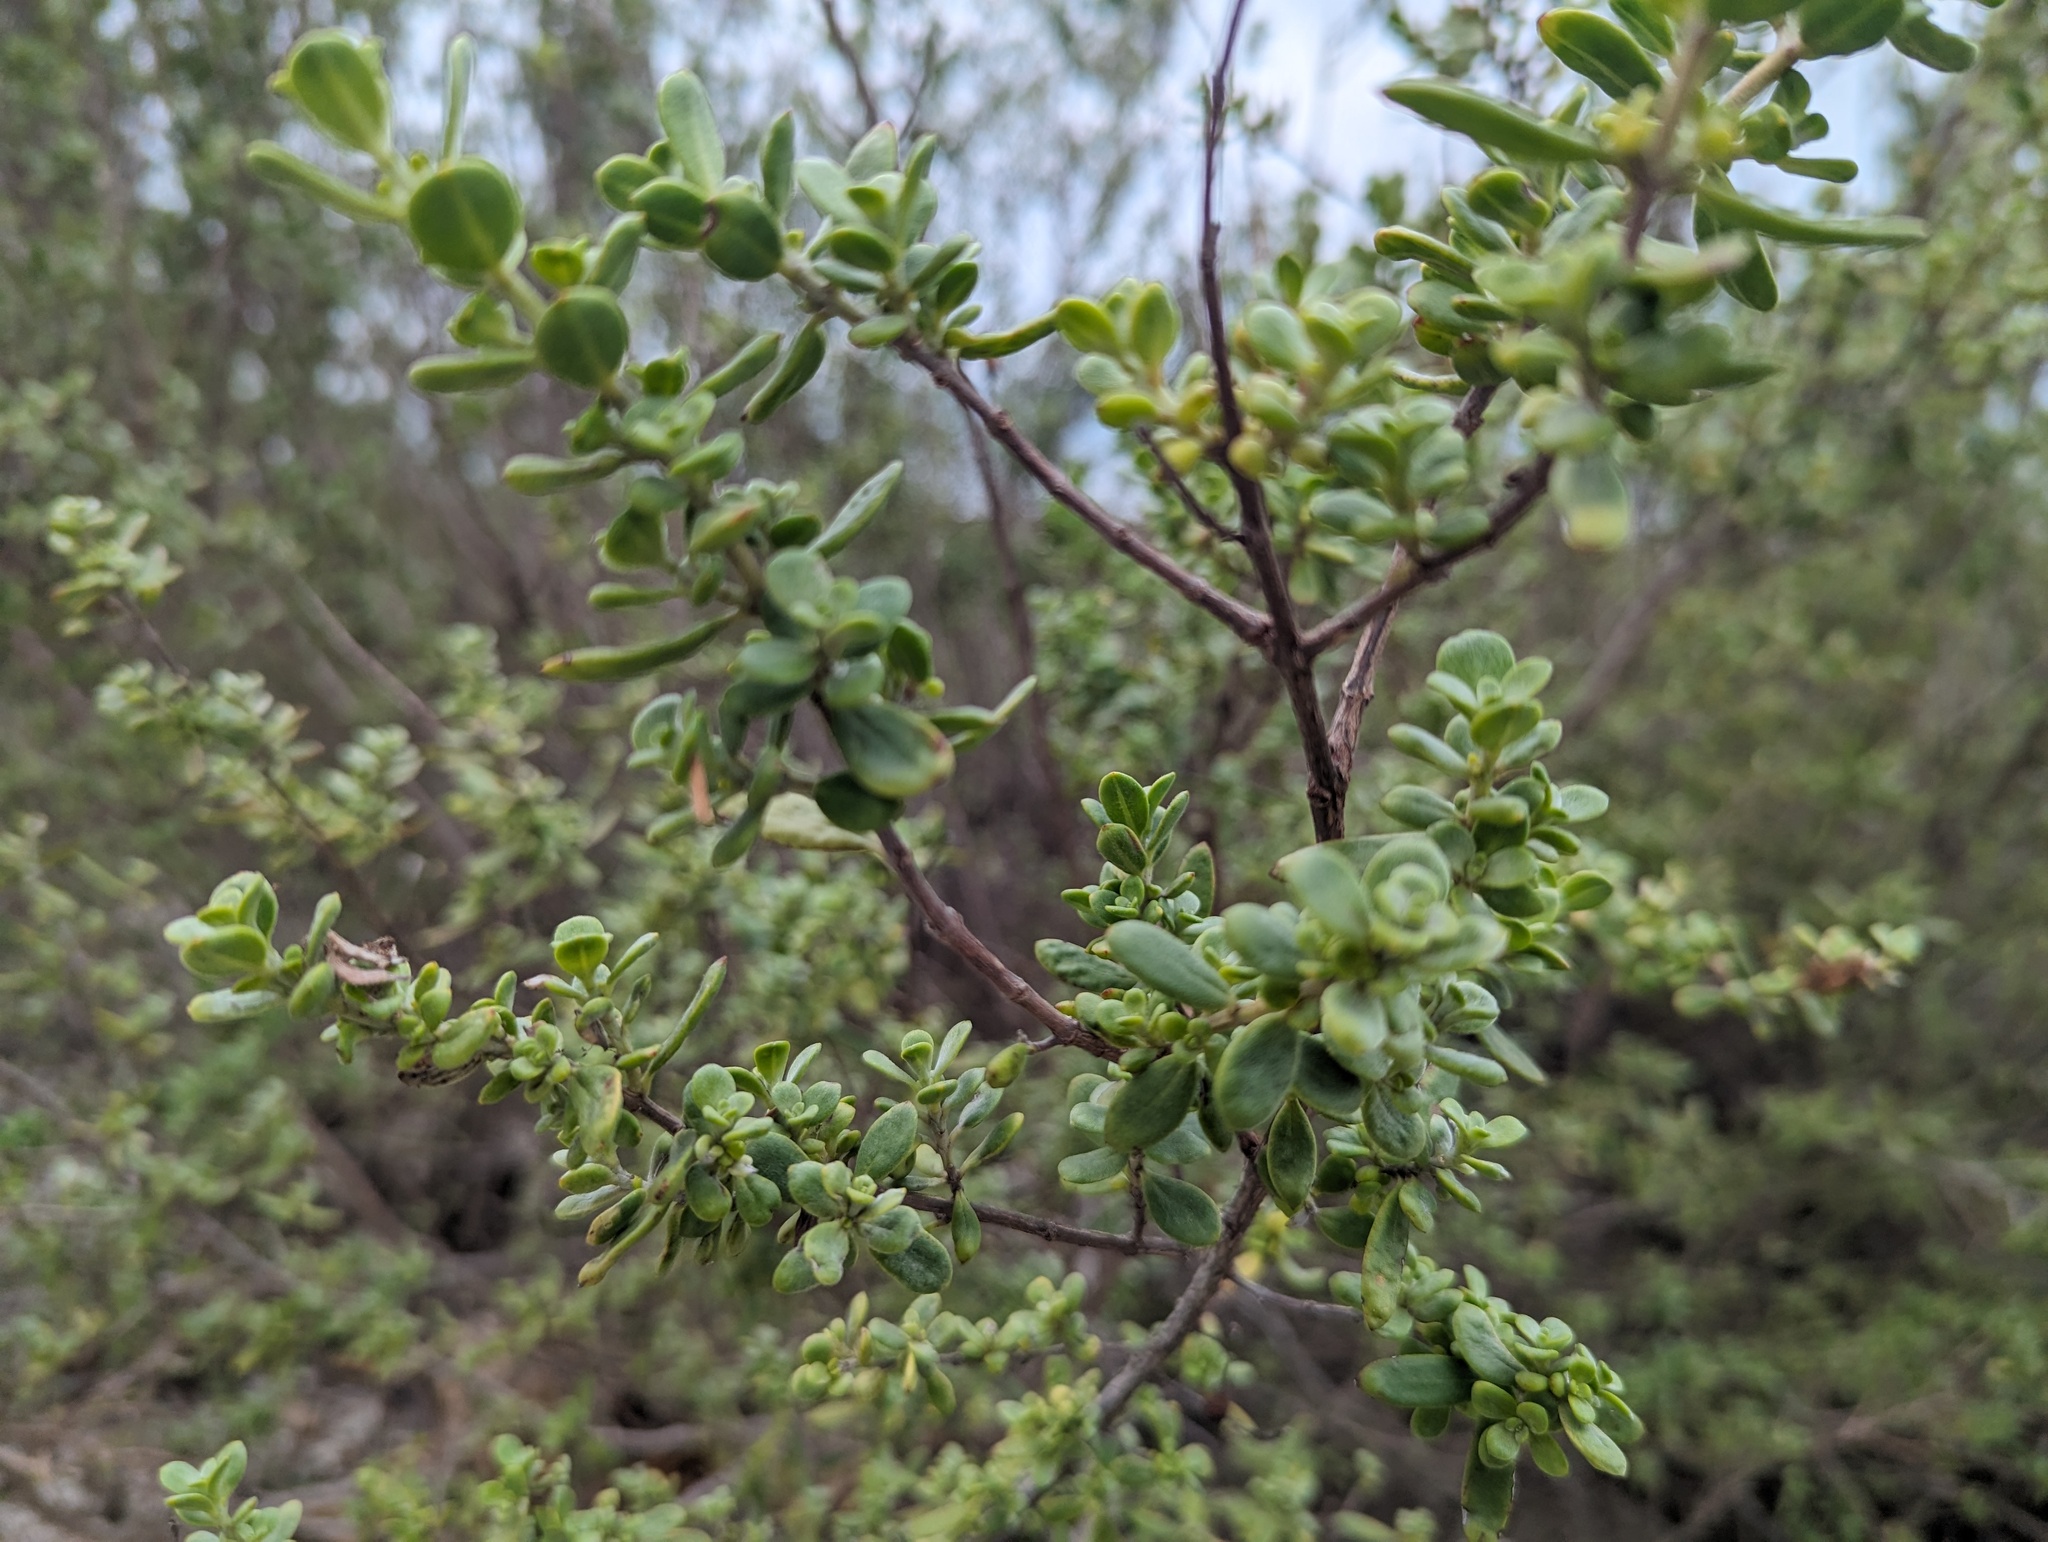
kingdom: Plantae
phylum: Tracheophyta
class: Magnoliopsida
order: Myrtales
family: Lythraceae
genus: Pemphis
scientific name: Pemphis acidula
